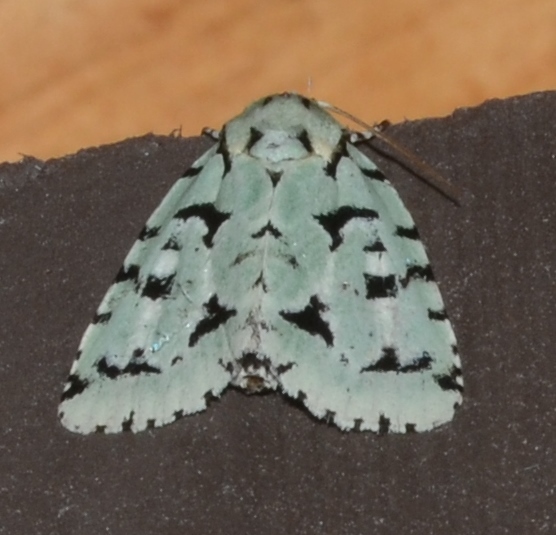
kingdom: Animalia
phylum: Arthropoda
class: Insecta
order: Lepidoptera
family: Noctuidae
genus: Acronicta
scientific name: Acronicta fallax
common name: Green marvel
